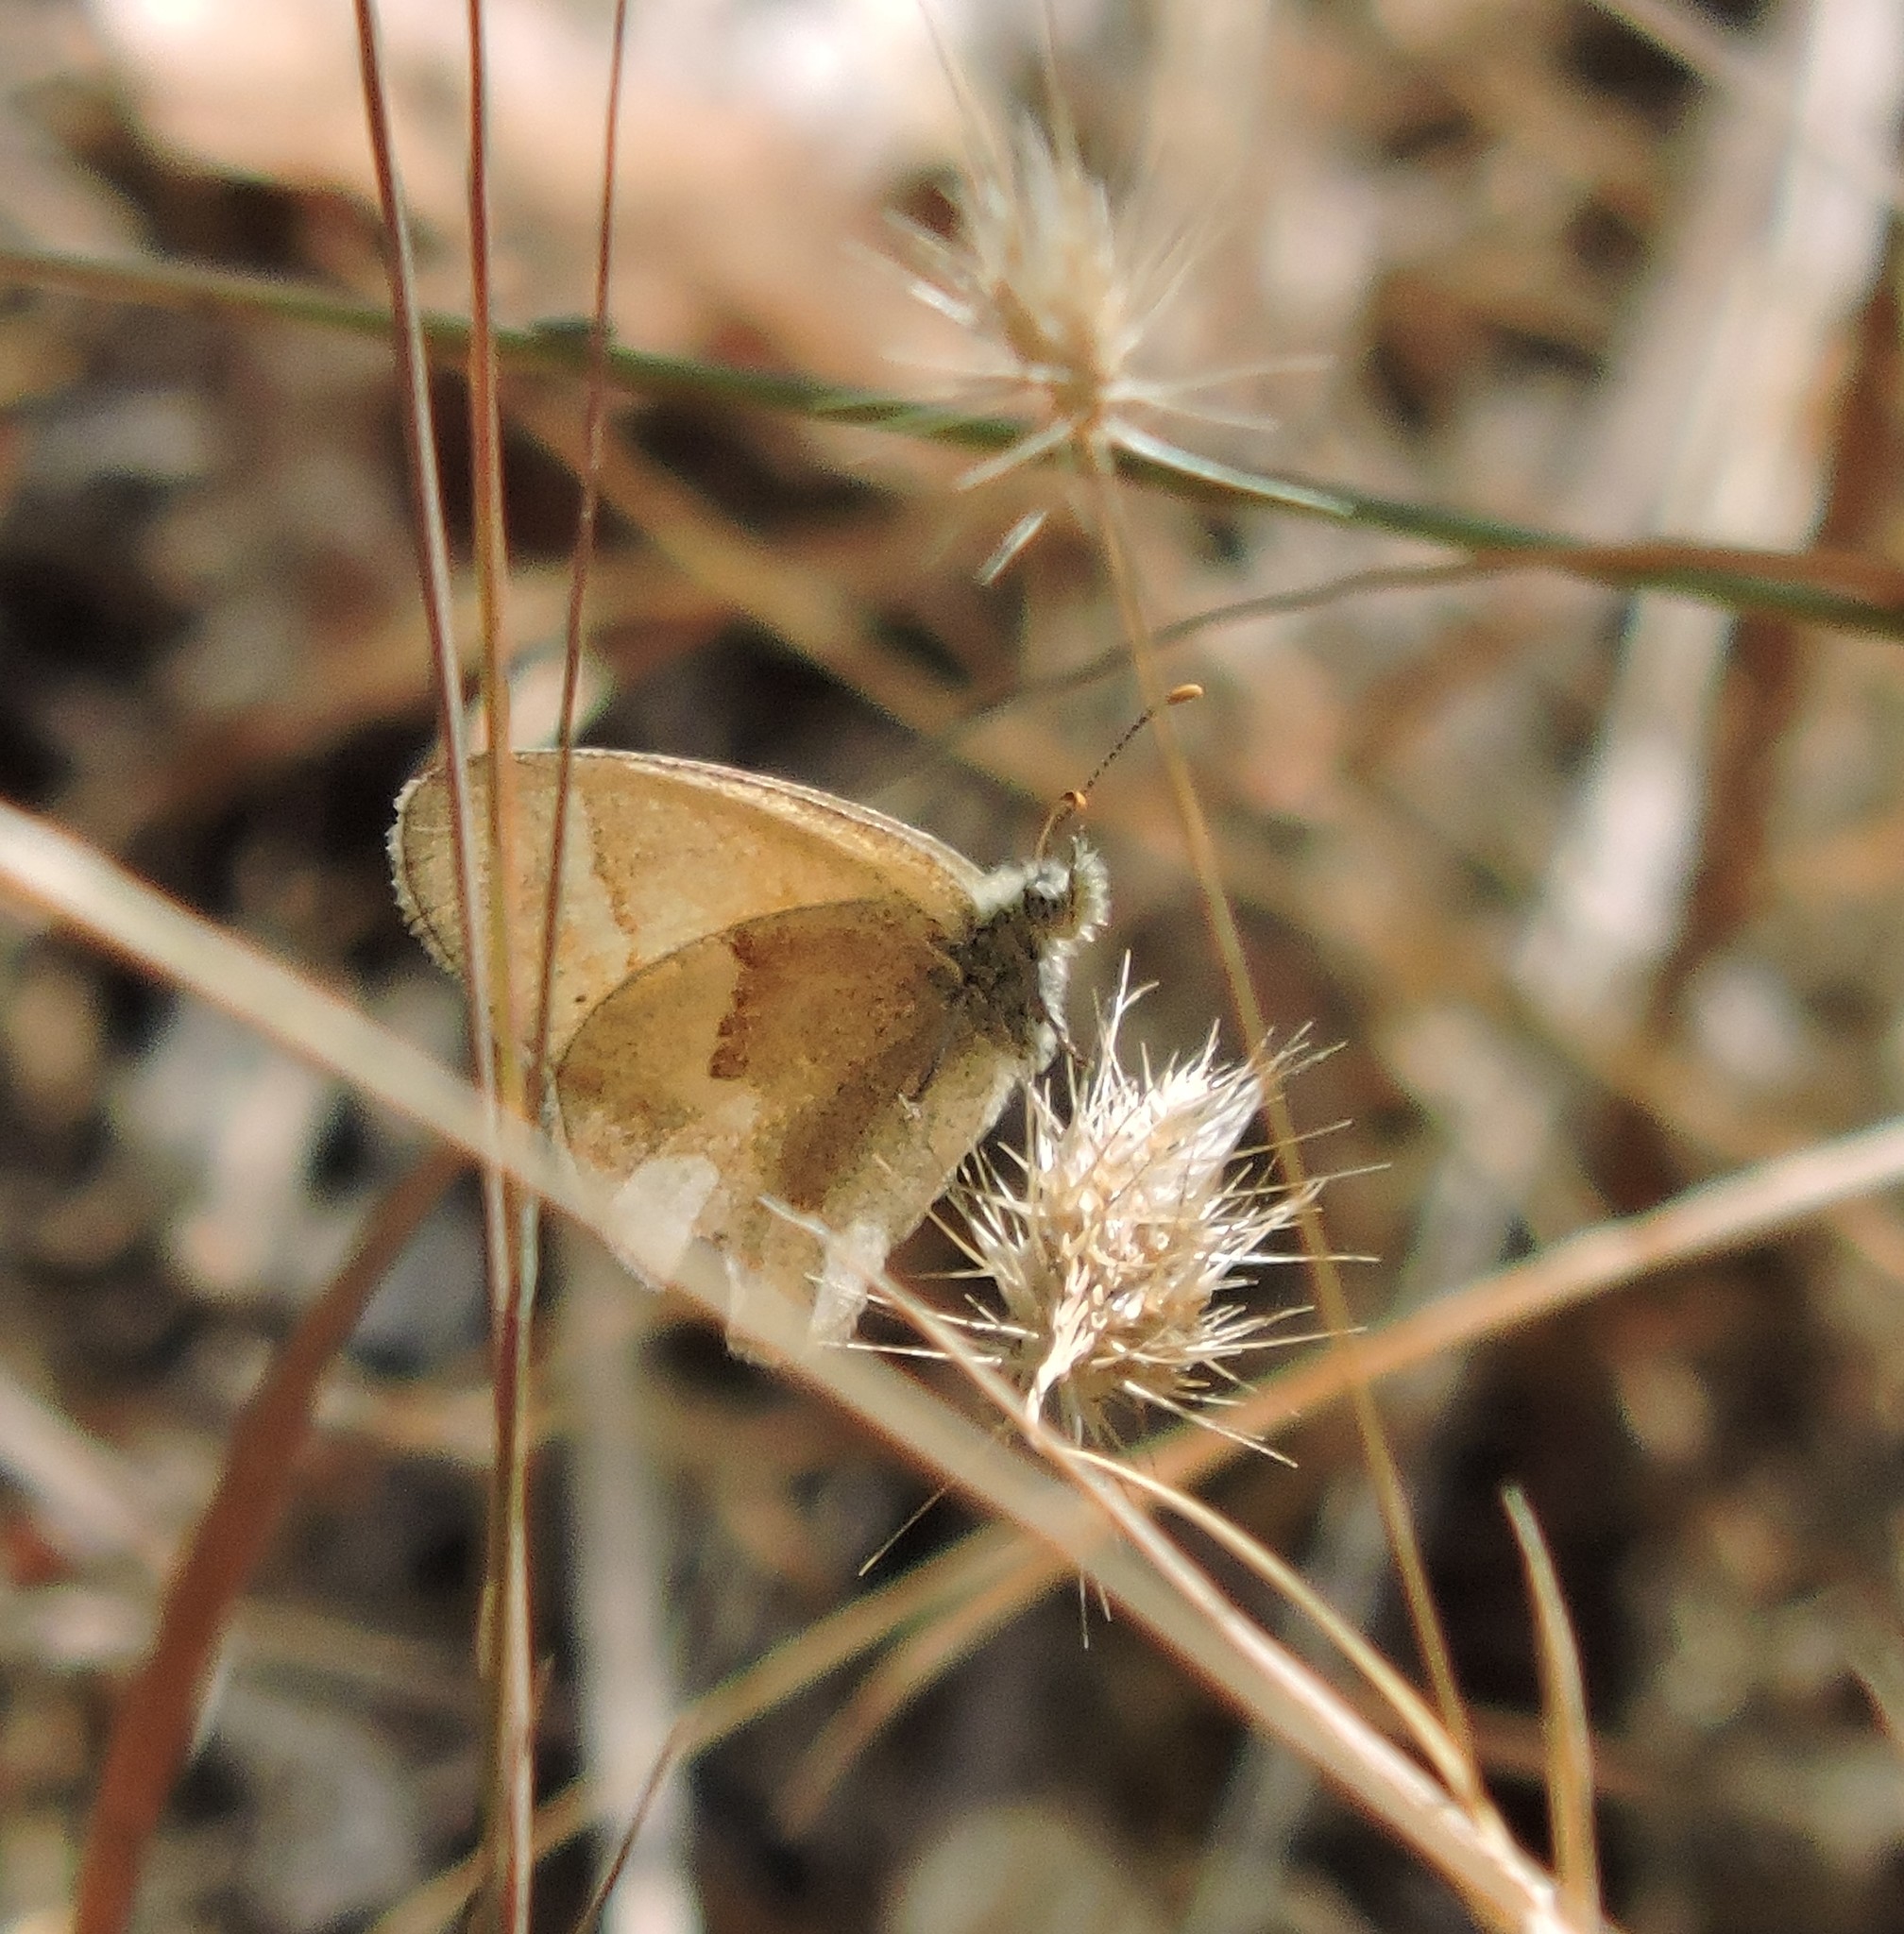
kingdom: Animalia
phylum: Arthropoda
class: Insecta
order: Lepidoptera
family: Nymphalidae
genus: Coenonympha
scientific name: Coenonympha california
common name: Common ringlet
